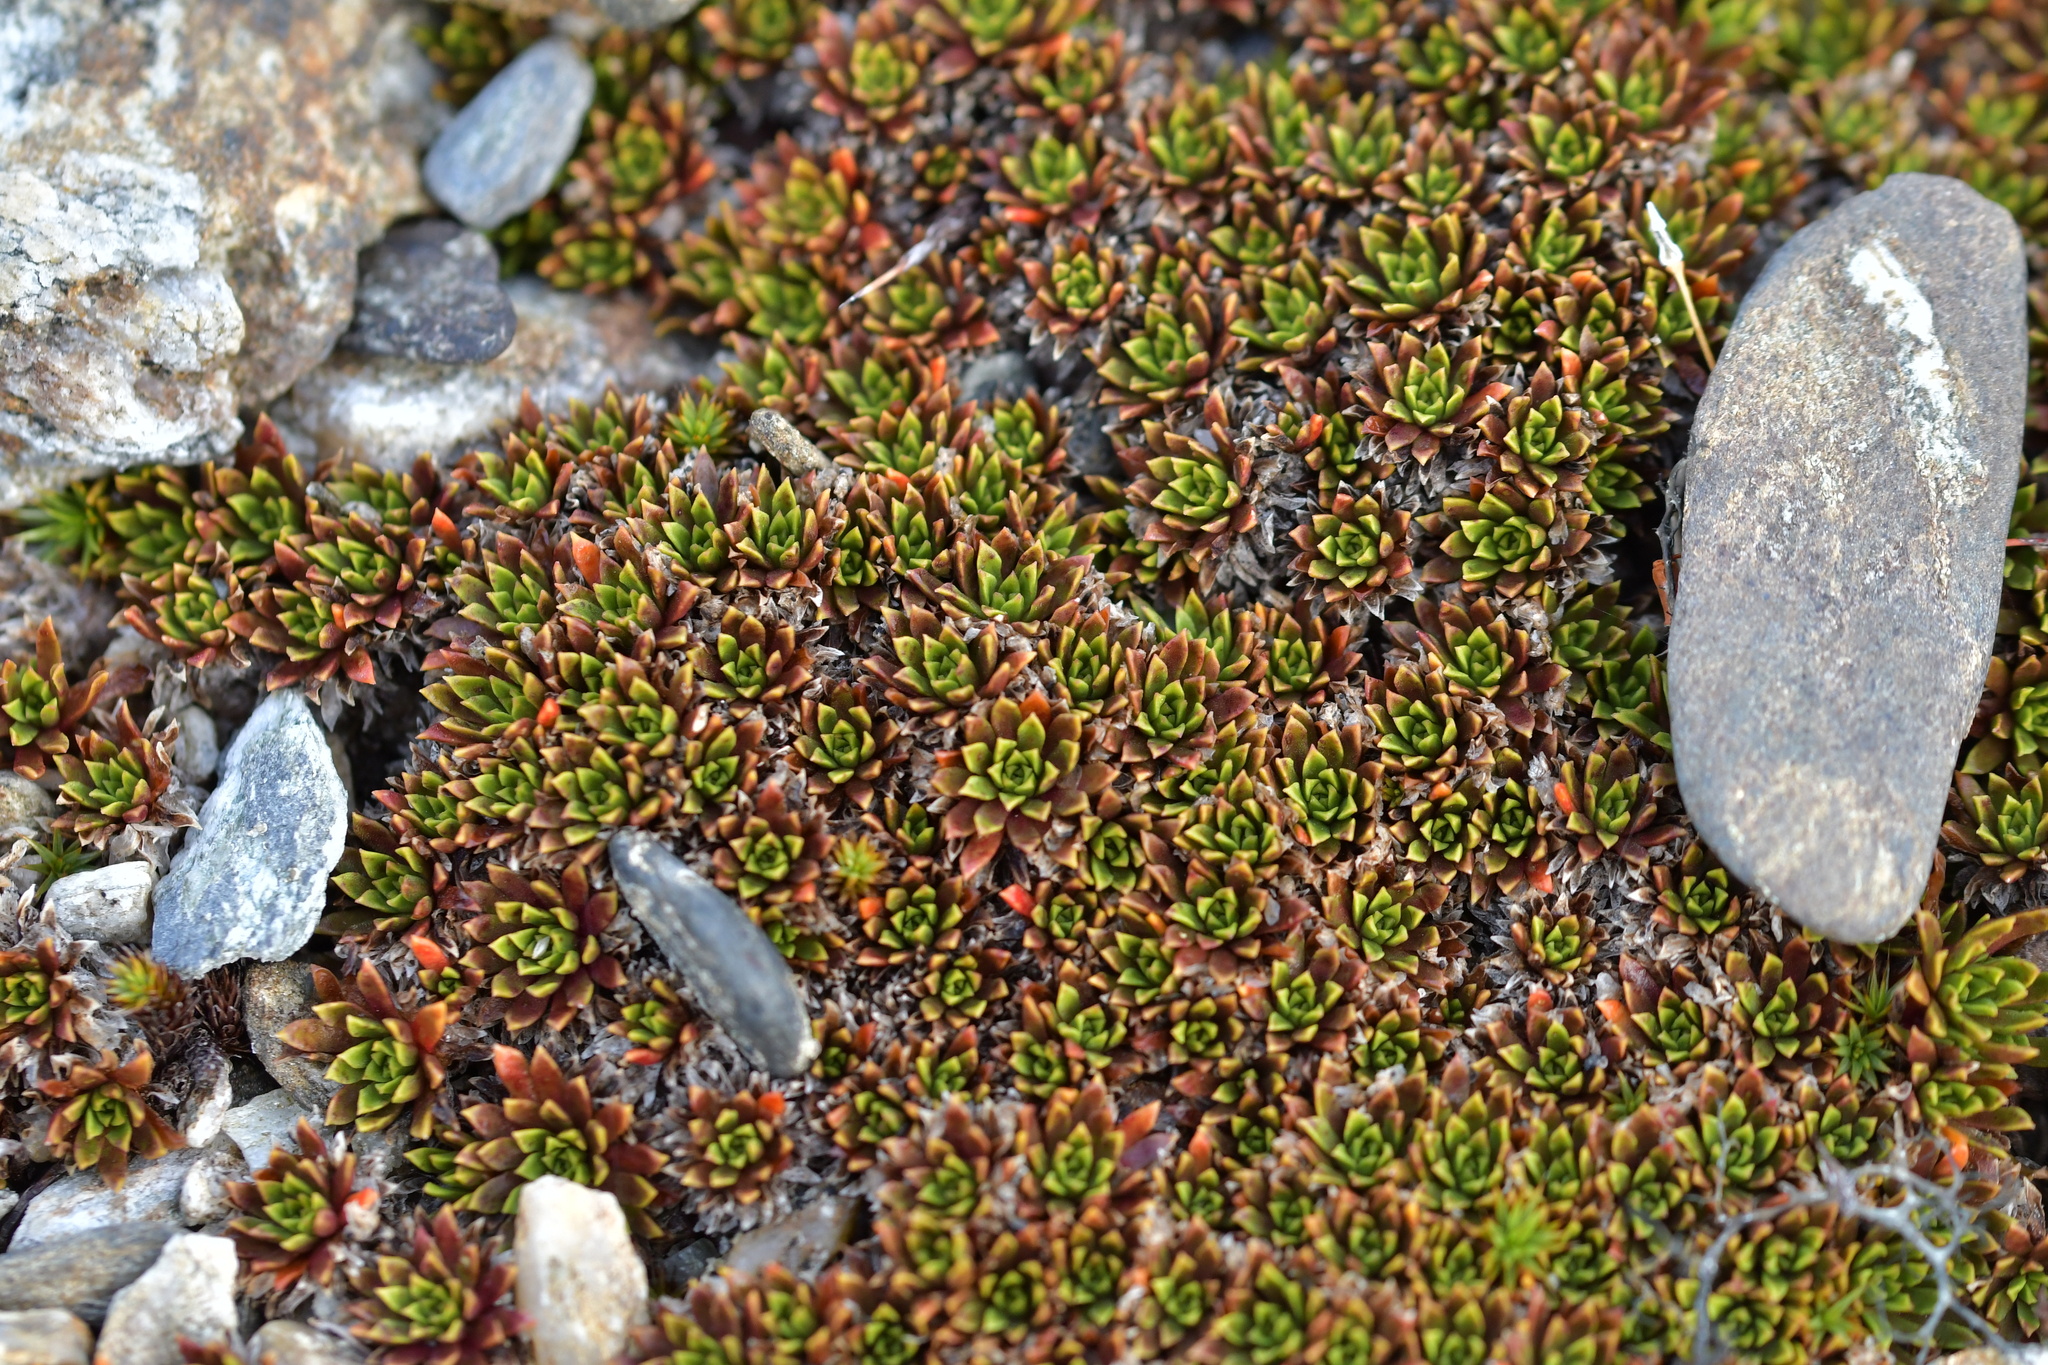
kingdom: Plantae
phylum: Tracheophyta
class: Magnoliopsida
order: Caryophyllales
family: Montiaceae
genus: Hectorella
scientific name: Hectorella caespitosa
